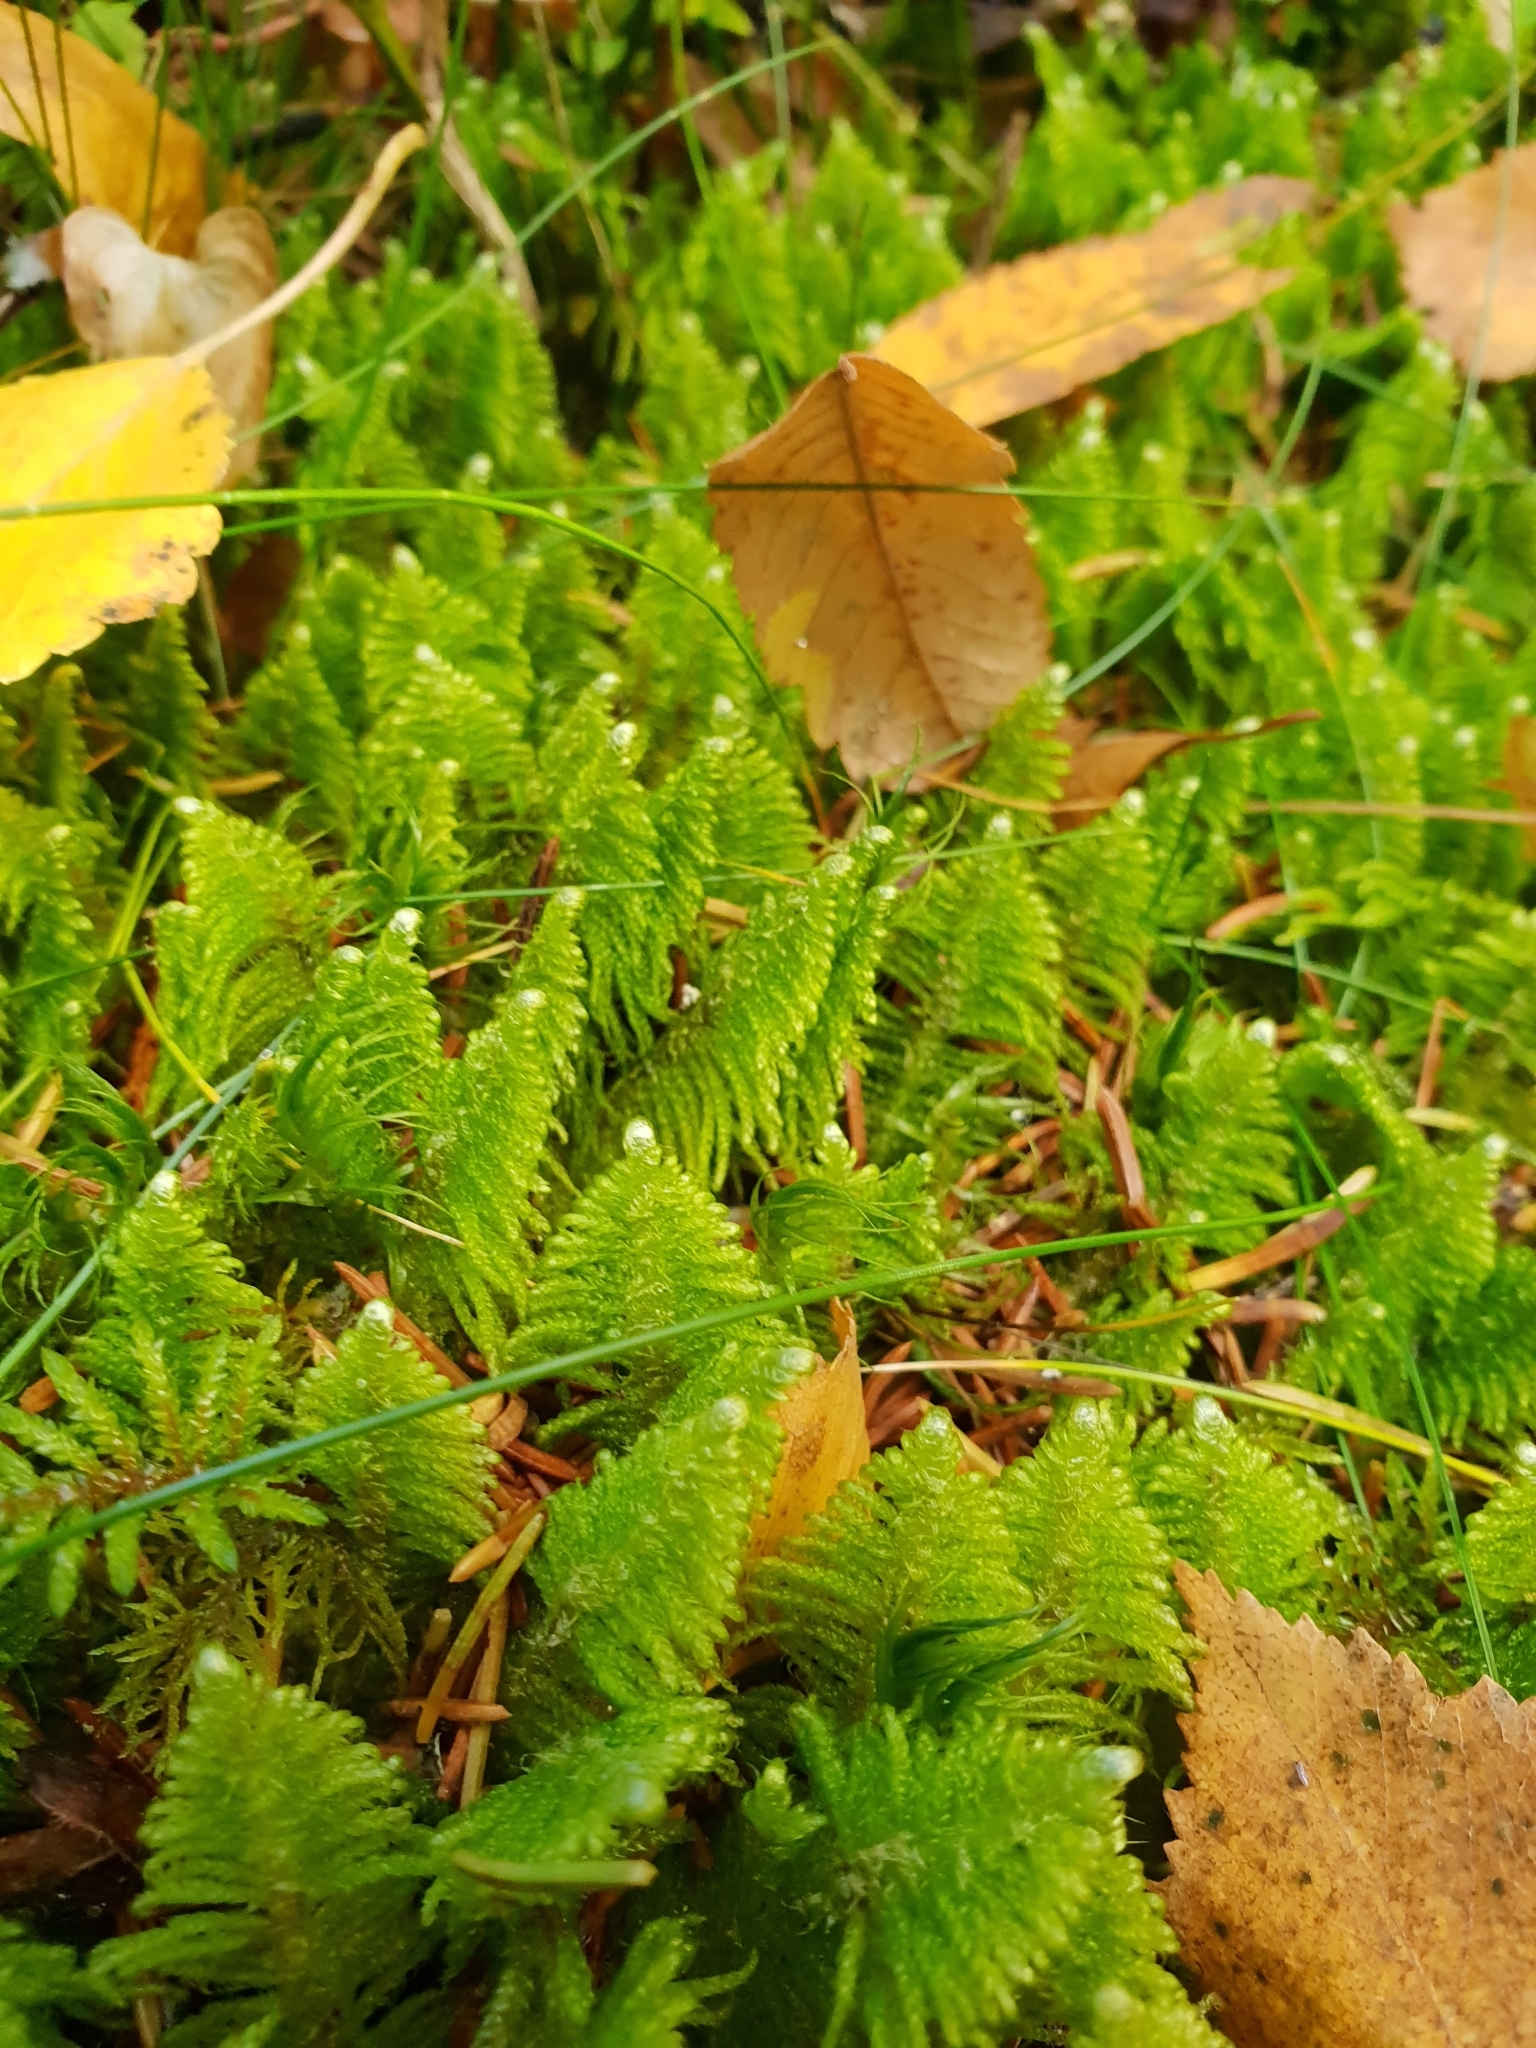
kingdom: Plantae
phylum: Bryophyta
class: Bryopsida
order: Hypnales
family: Pylaisiaceae
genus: Ptilium
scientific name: Ptilium crista-castrensis
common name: Knight's plume moss
